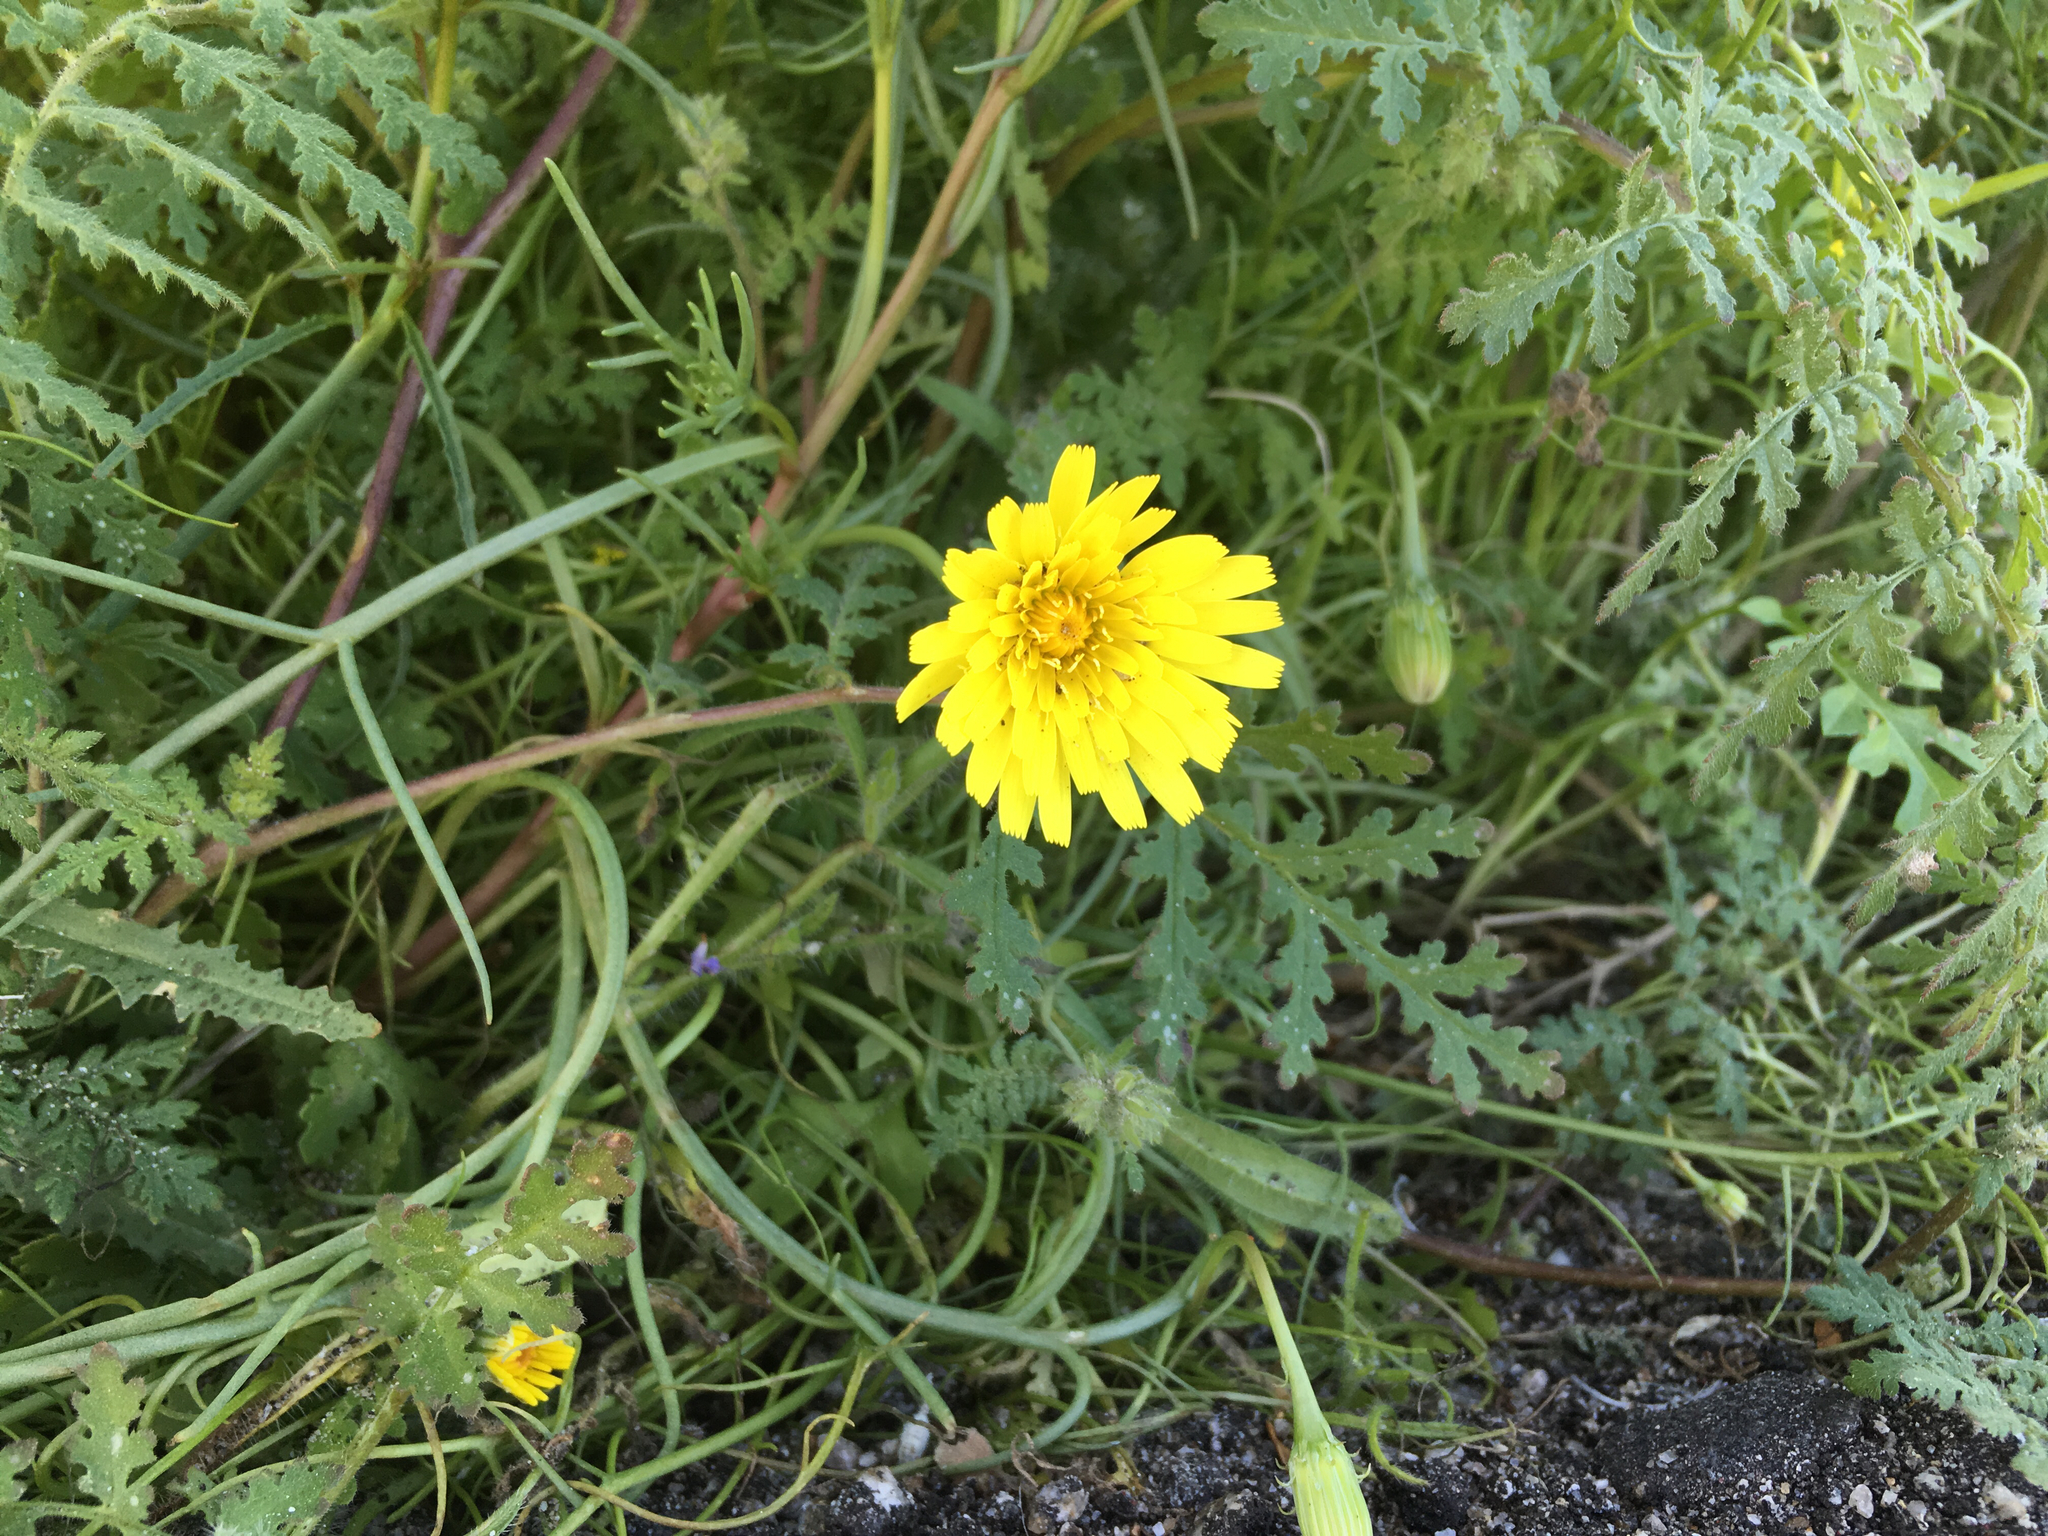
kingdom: Plantae
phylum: Tracheophyta
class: Magnoliopsida
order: Asterales
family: Asteraceae
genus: Malacothrix
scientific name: Malacothrix glabrata
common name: Smooth desert-dandelion
